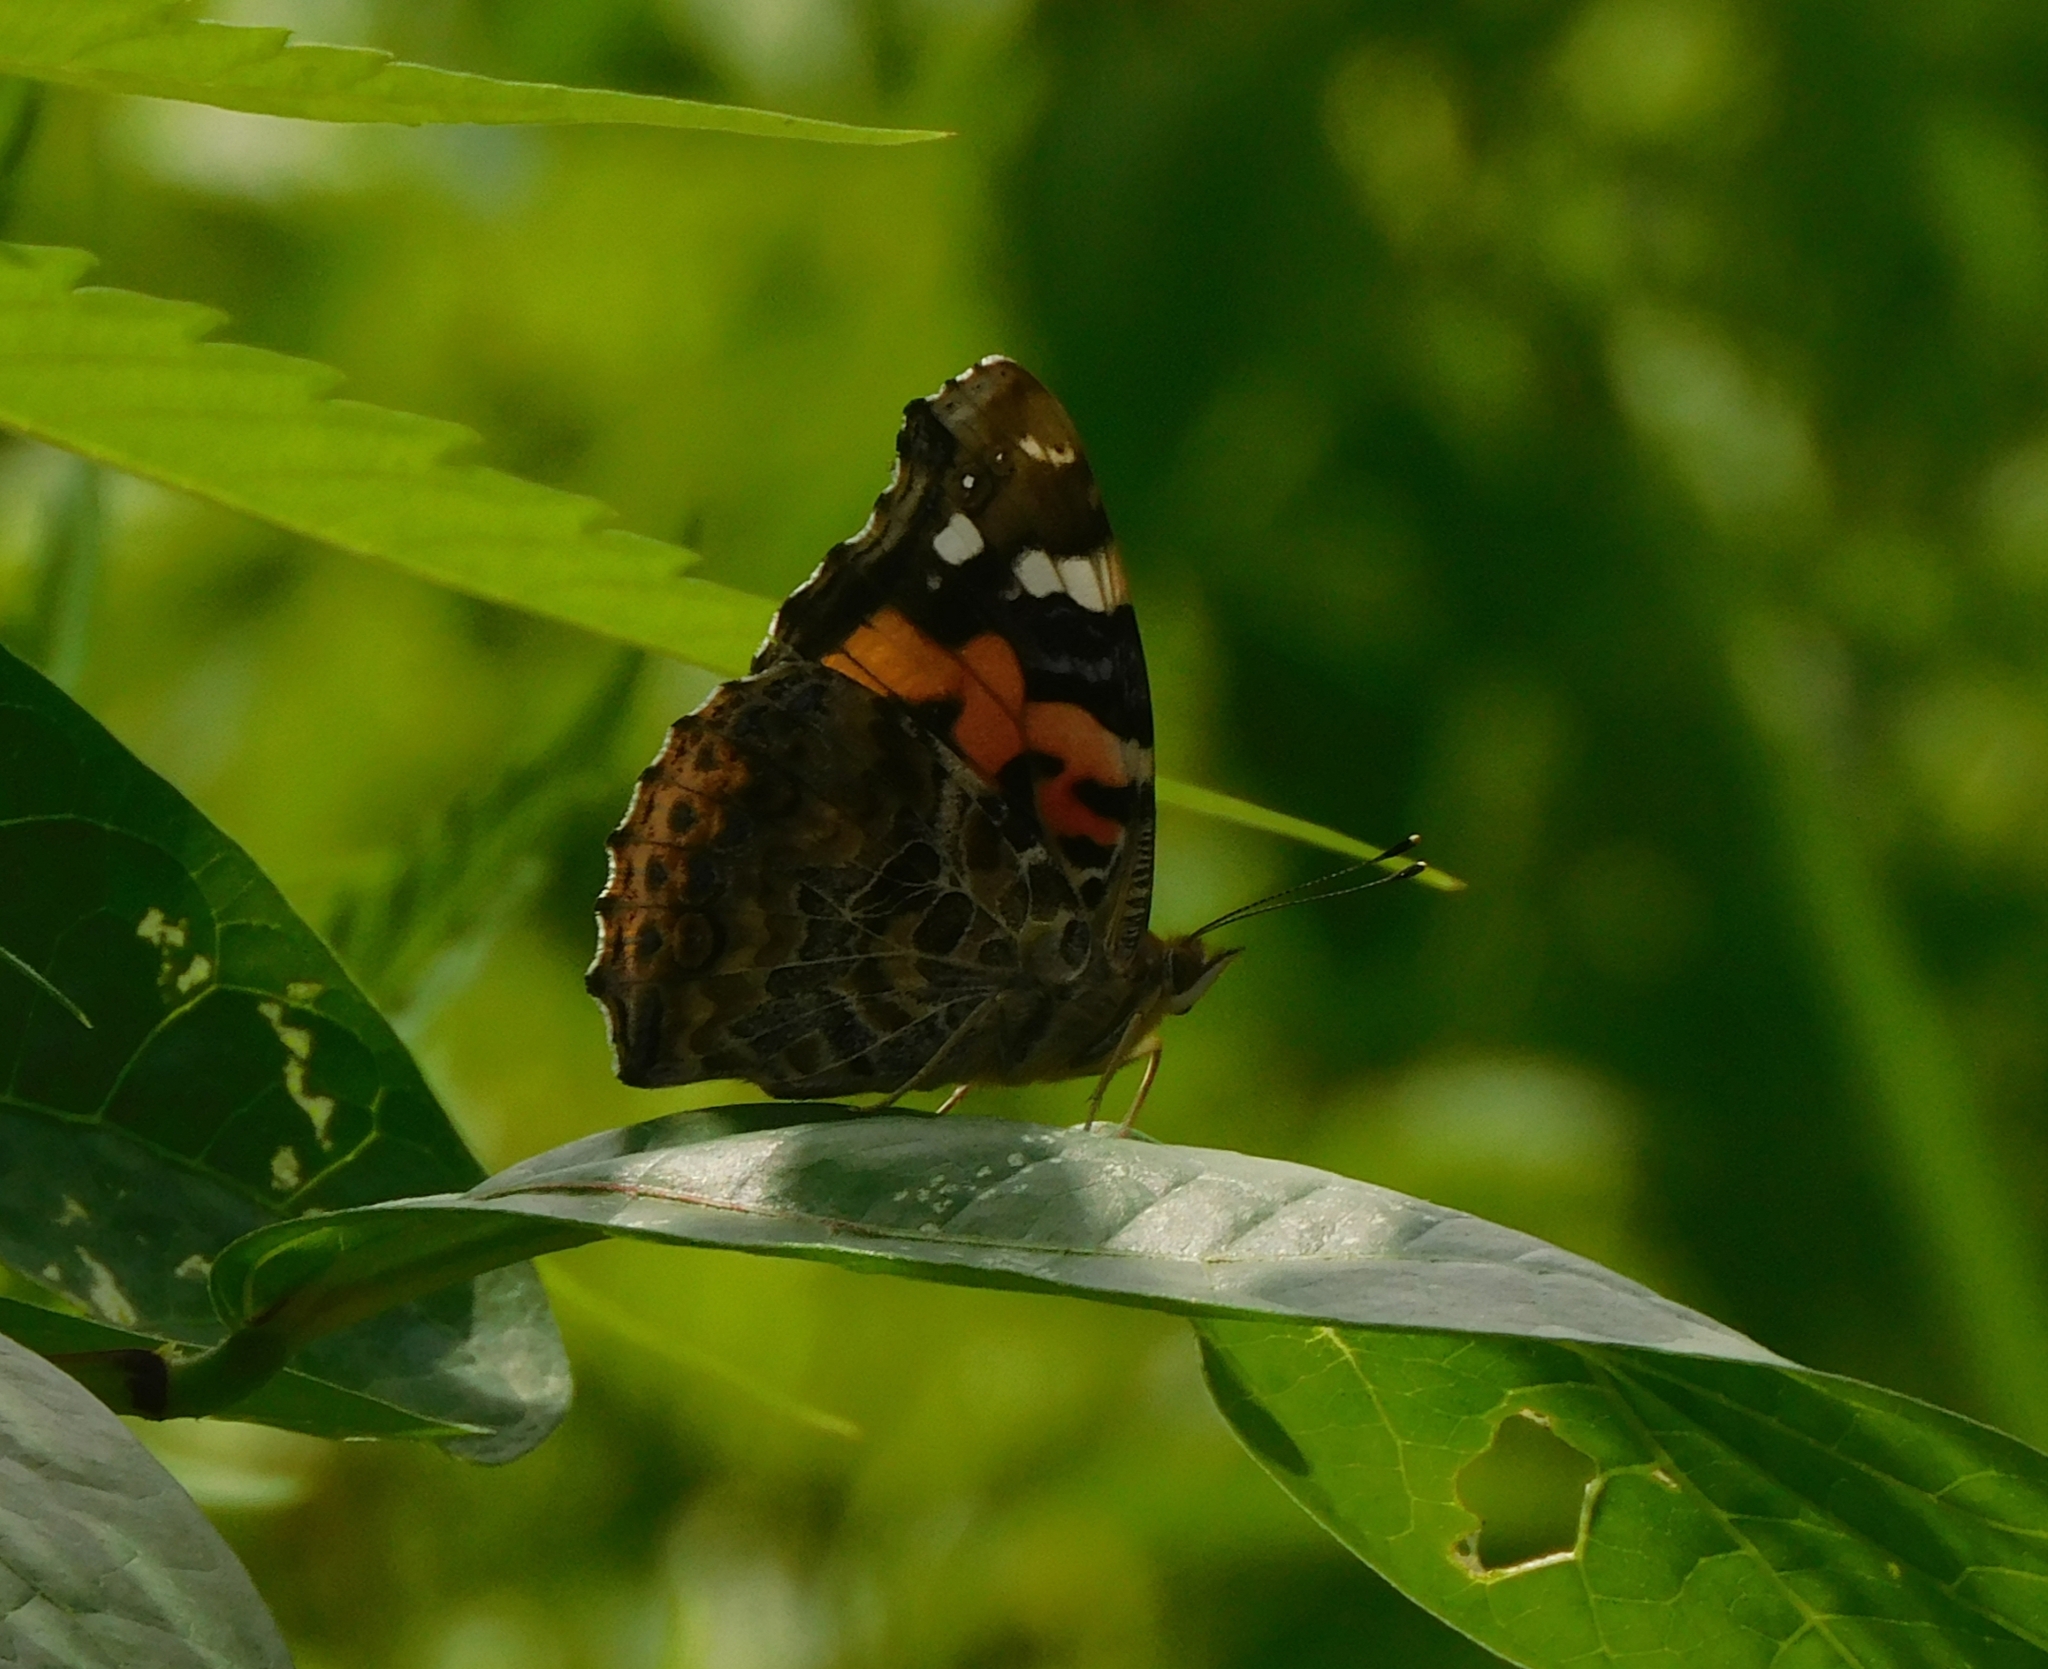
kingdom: Animalia
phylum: Arthropoda
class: Insecta
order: Lepidoptera
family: Nymphalidae
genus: Vanessa
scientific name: Vanessa indica
